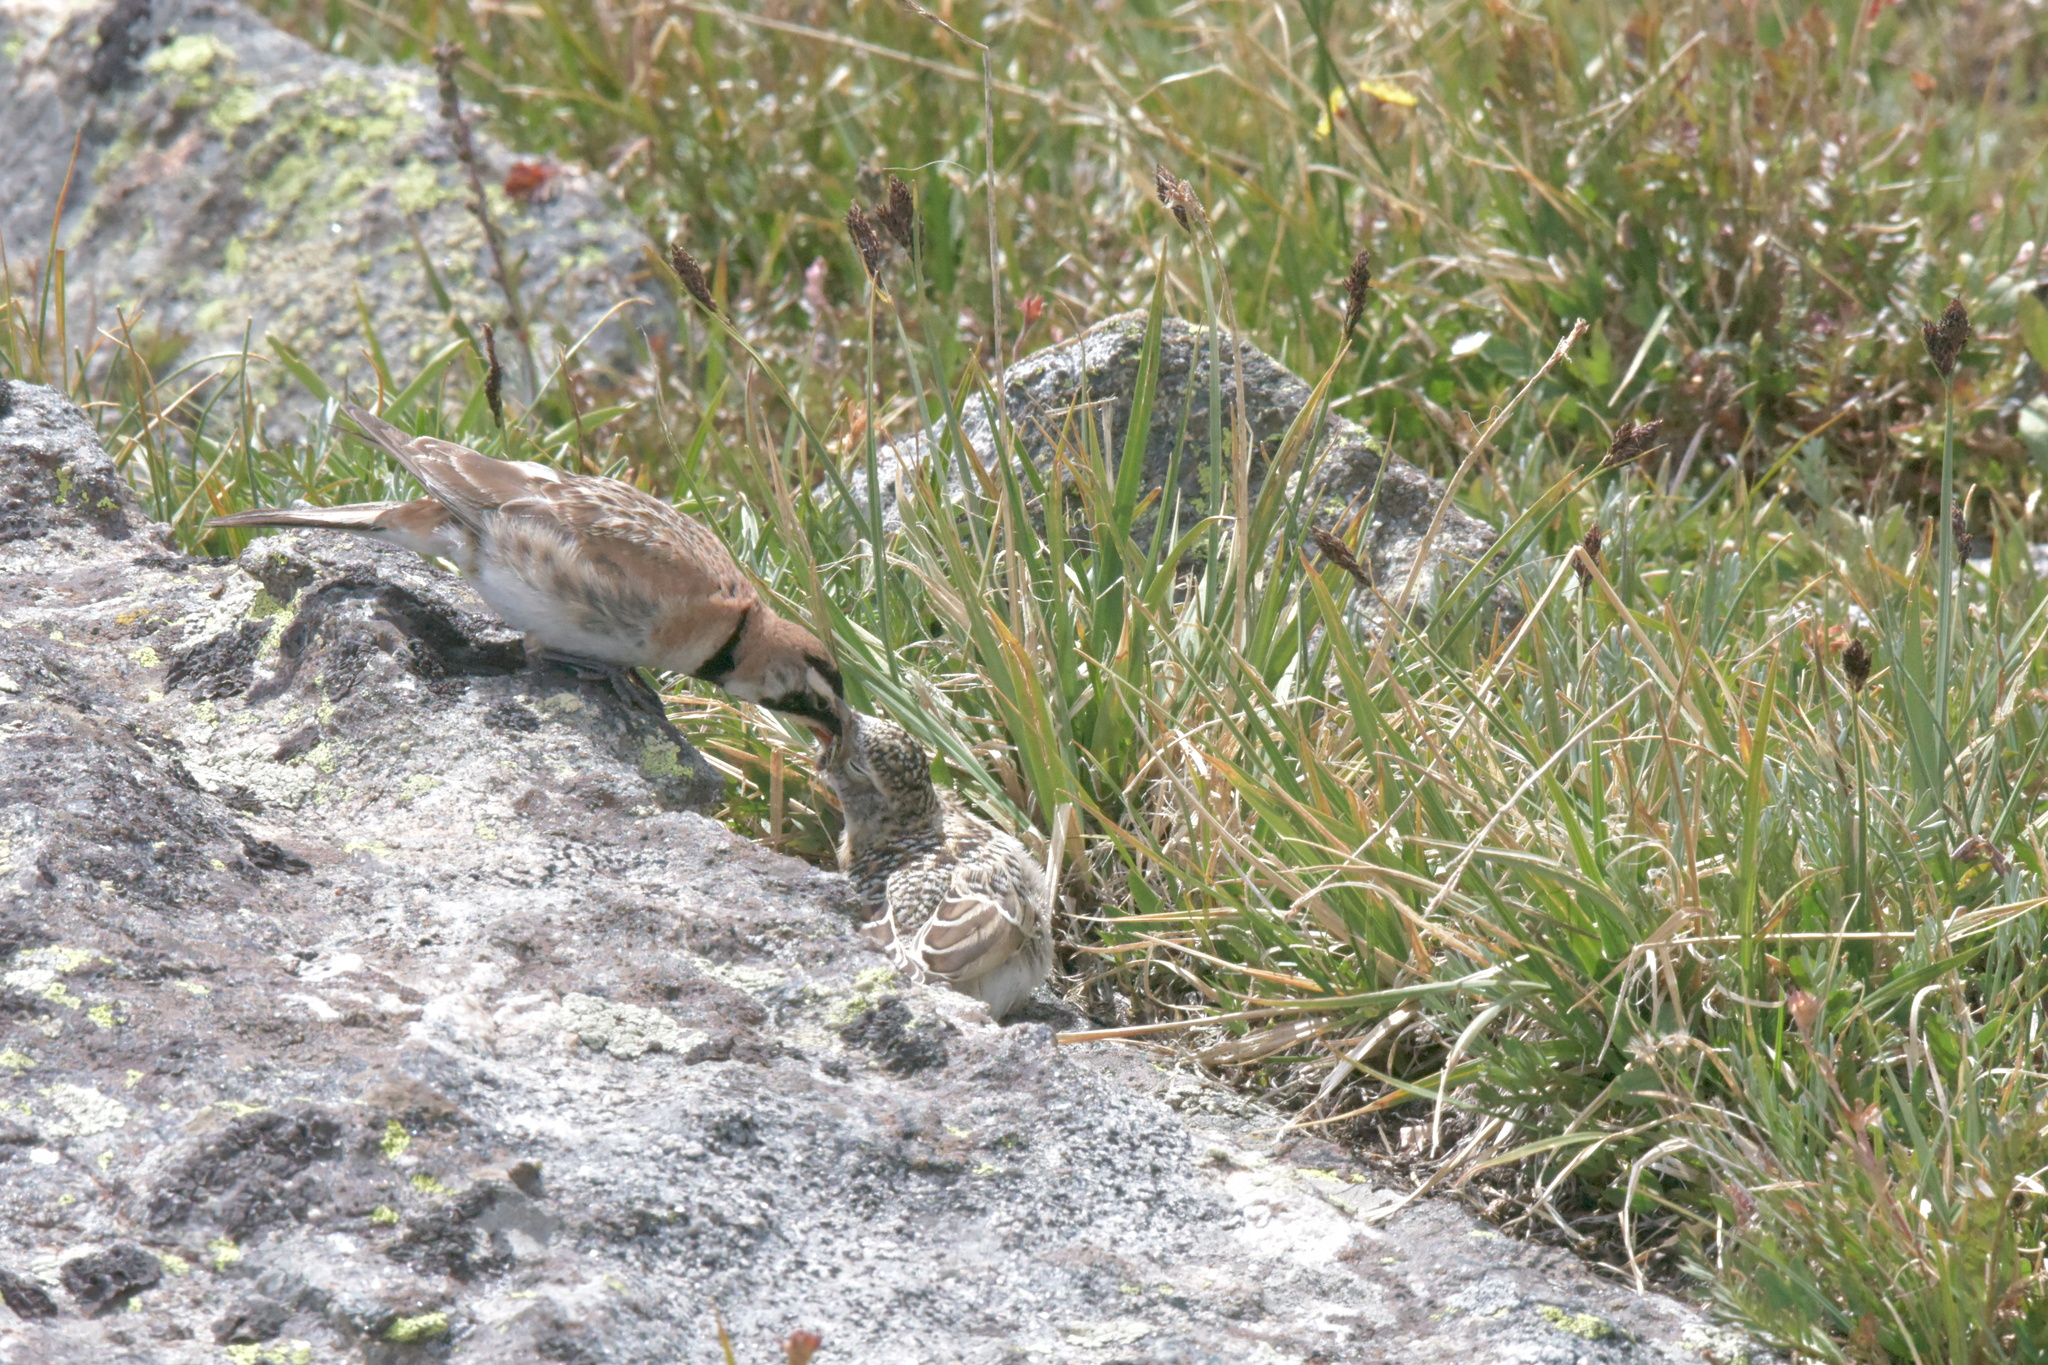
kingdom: Animalia
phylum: Chordata
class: Aves
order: Passeriformes
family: Alaudidae
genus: Eremophila
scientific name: Eremophila alpestris
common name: Horned lark
